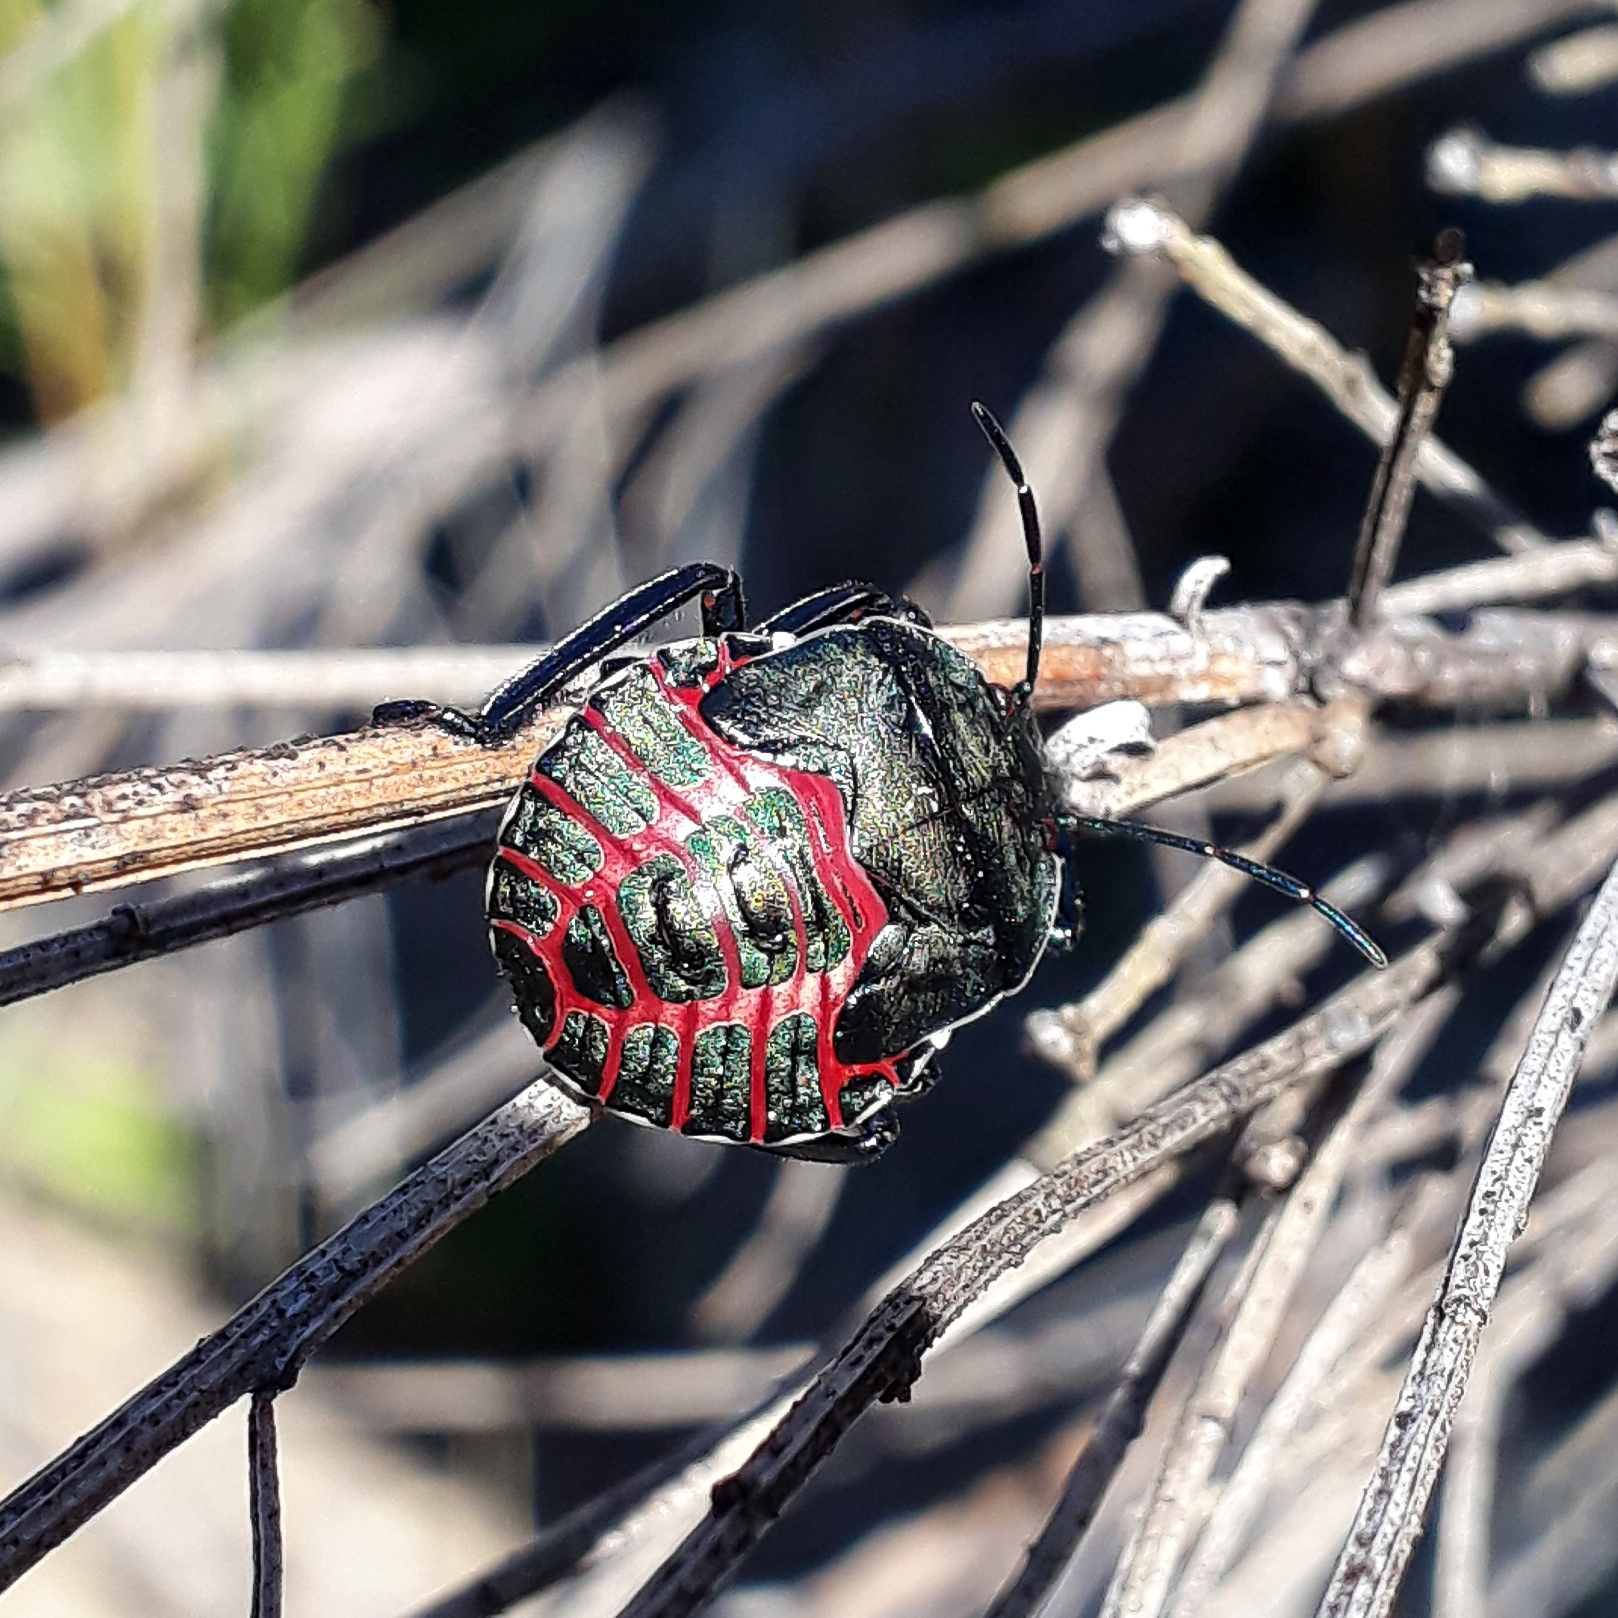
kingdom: Animalia
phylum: Arthropoda
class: Insecta
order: Hemiptera
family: Pentatomidae
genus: Pellaea
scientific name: Pellaea stictica
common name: Stink bug
